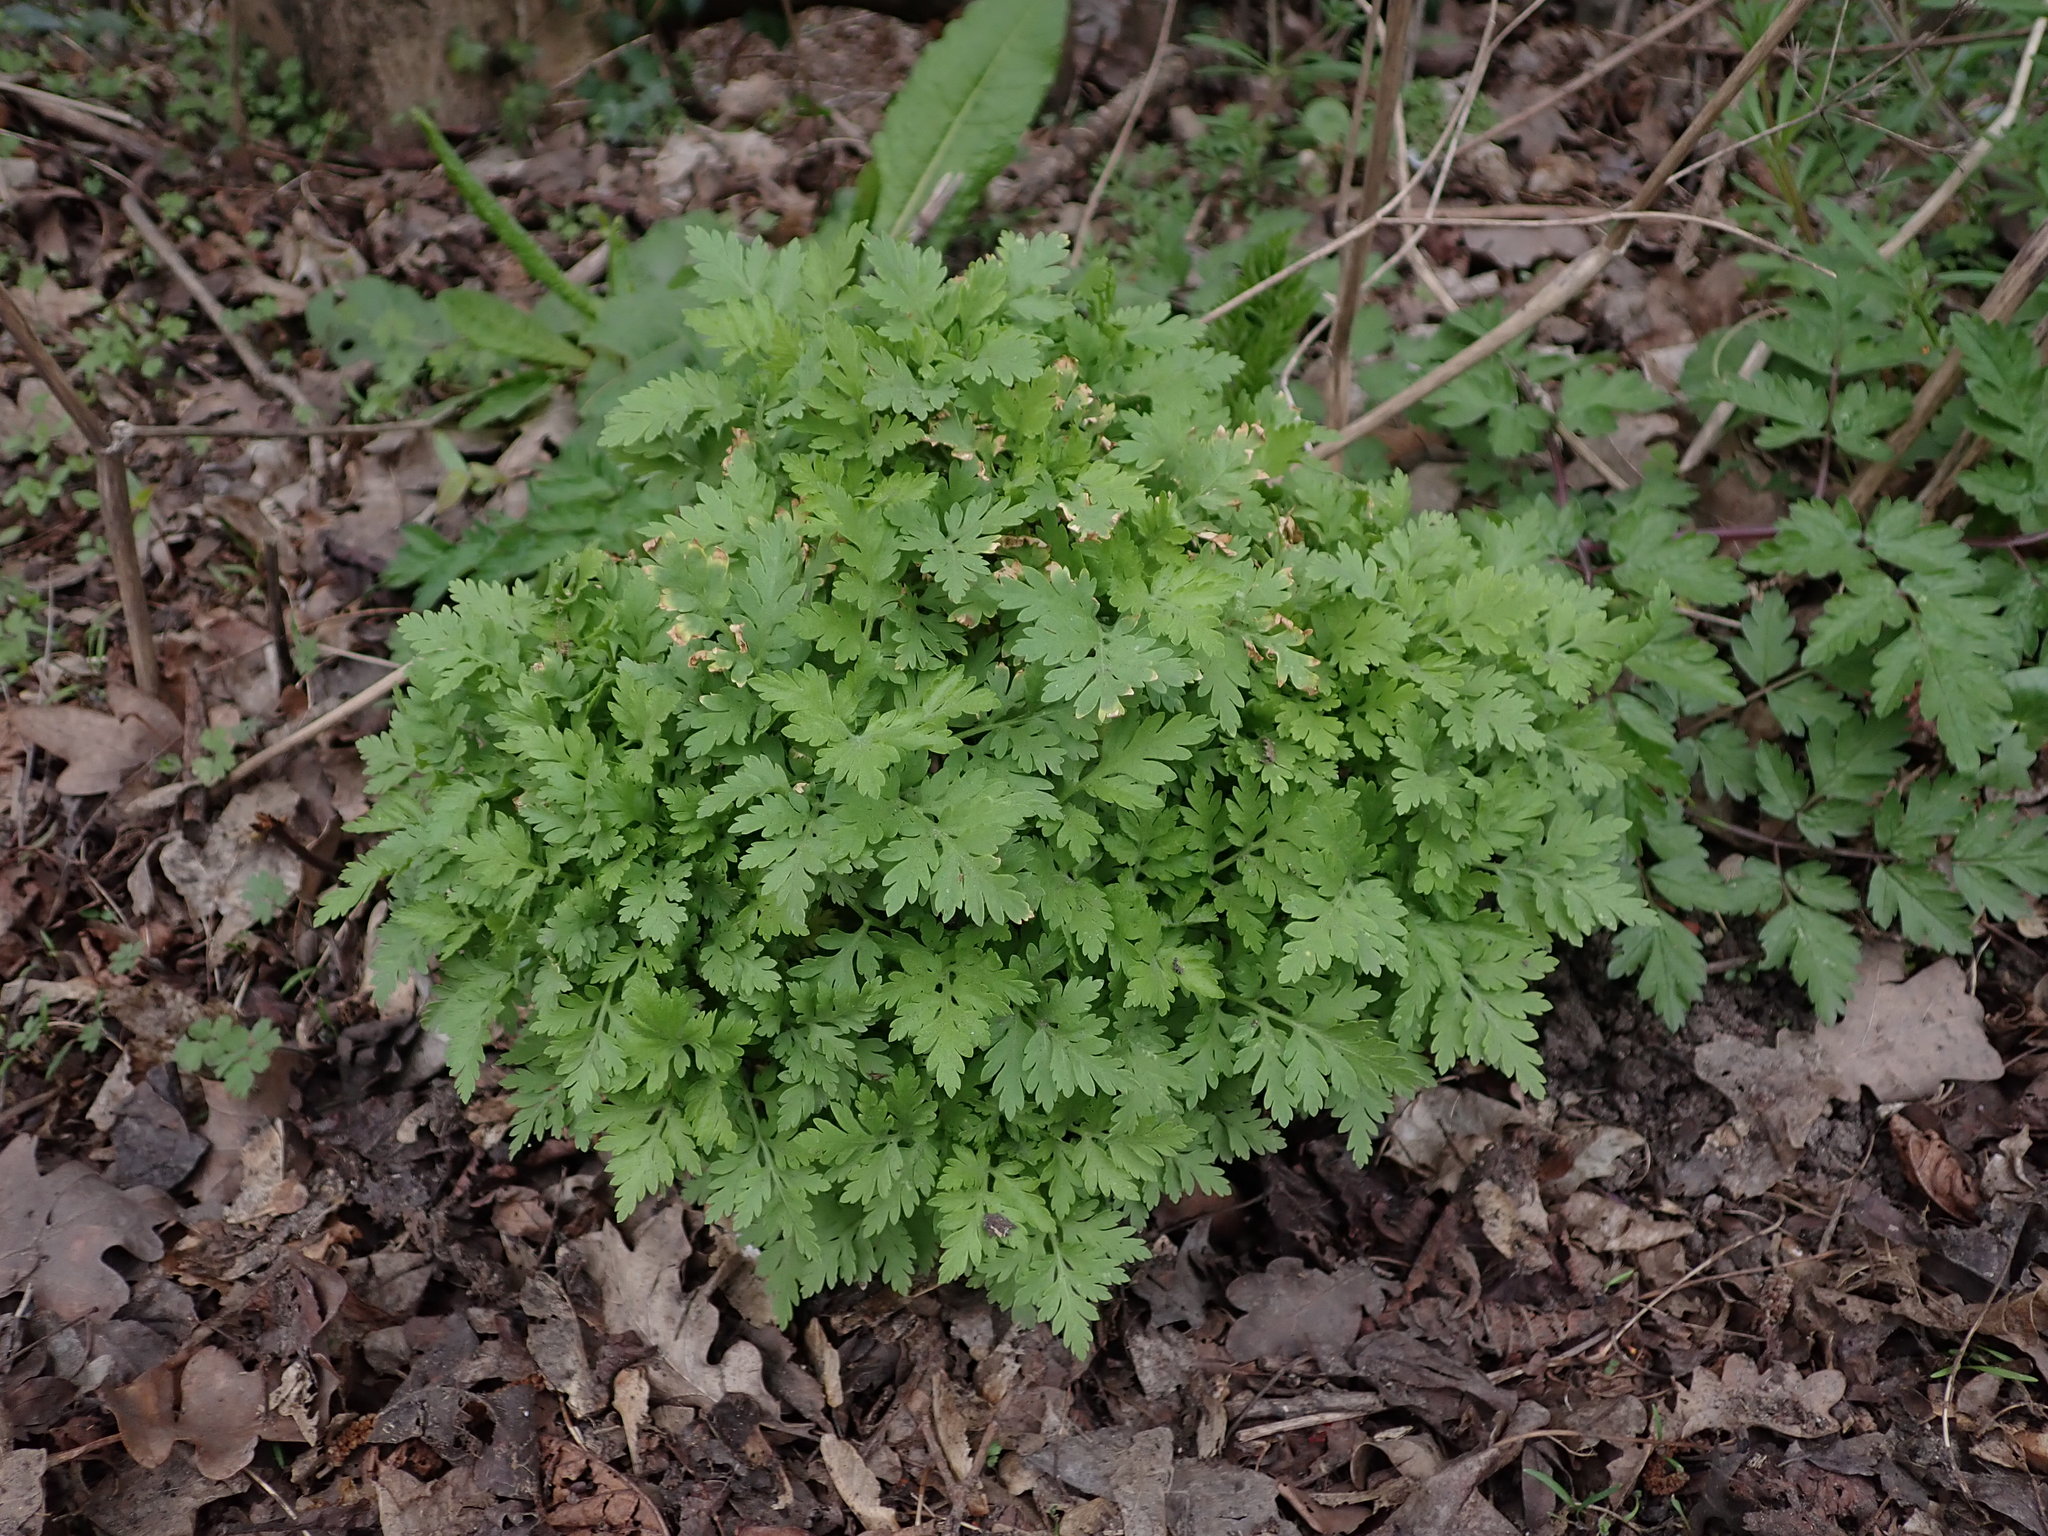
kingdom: Plantae
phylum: Tracheophyta
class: Magnoliopsida
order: Asterales
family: Asteraceae
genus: Tanacetum
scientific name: Tanacetum parthenium
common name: Feverfew
